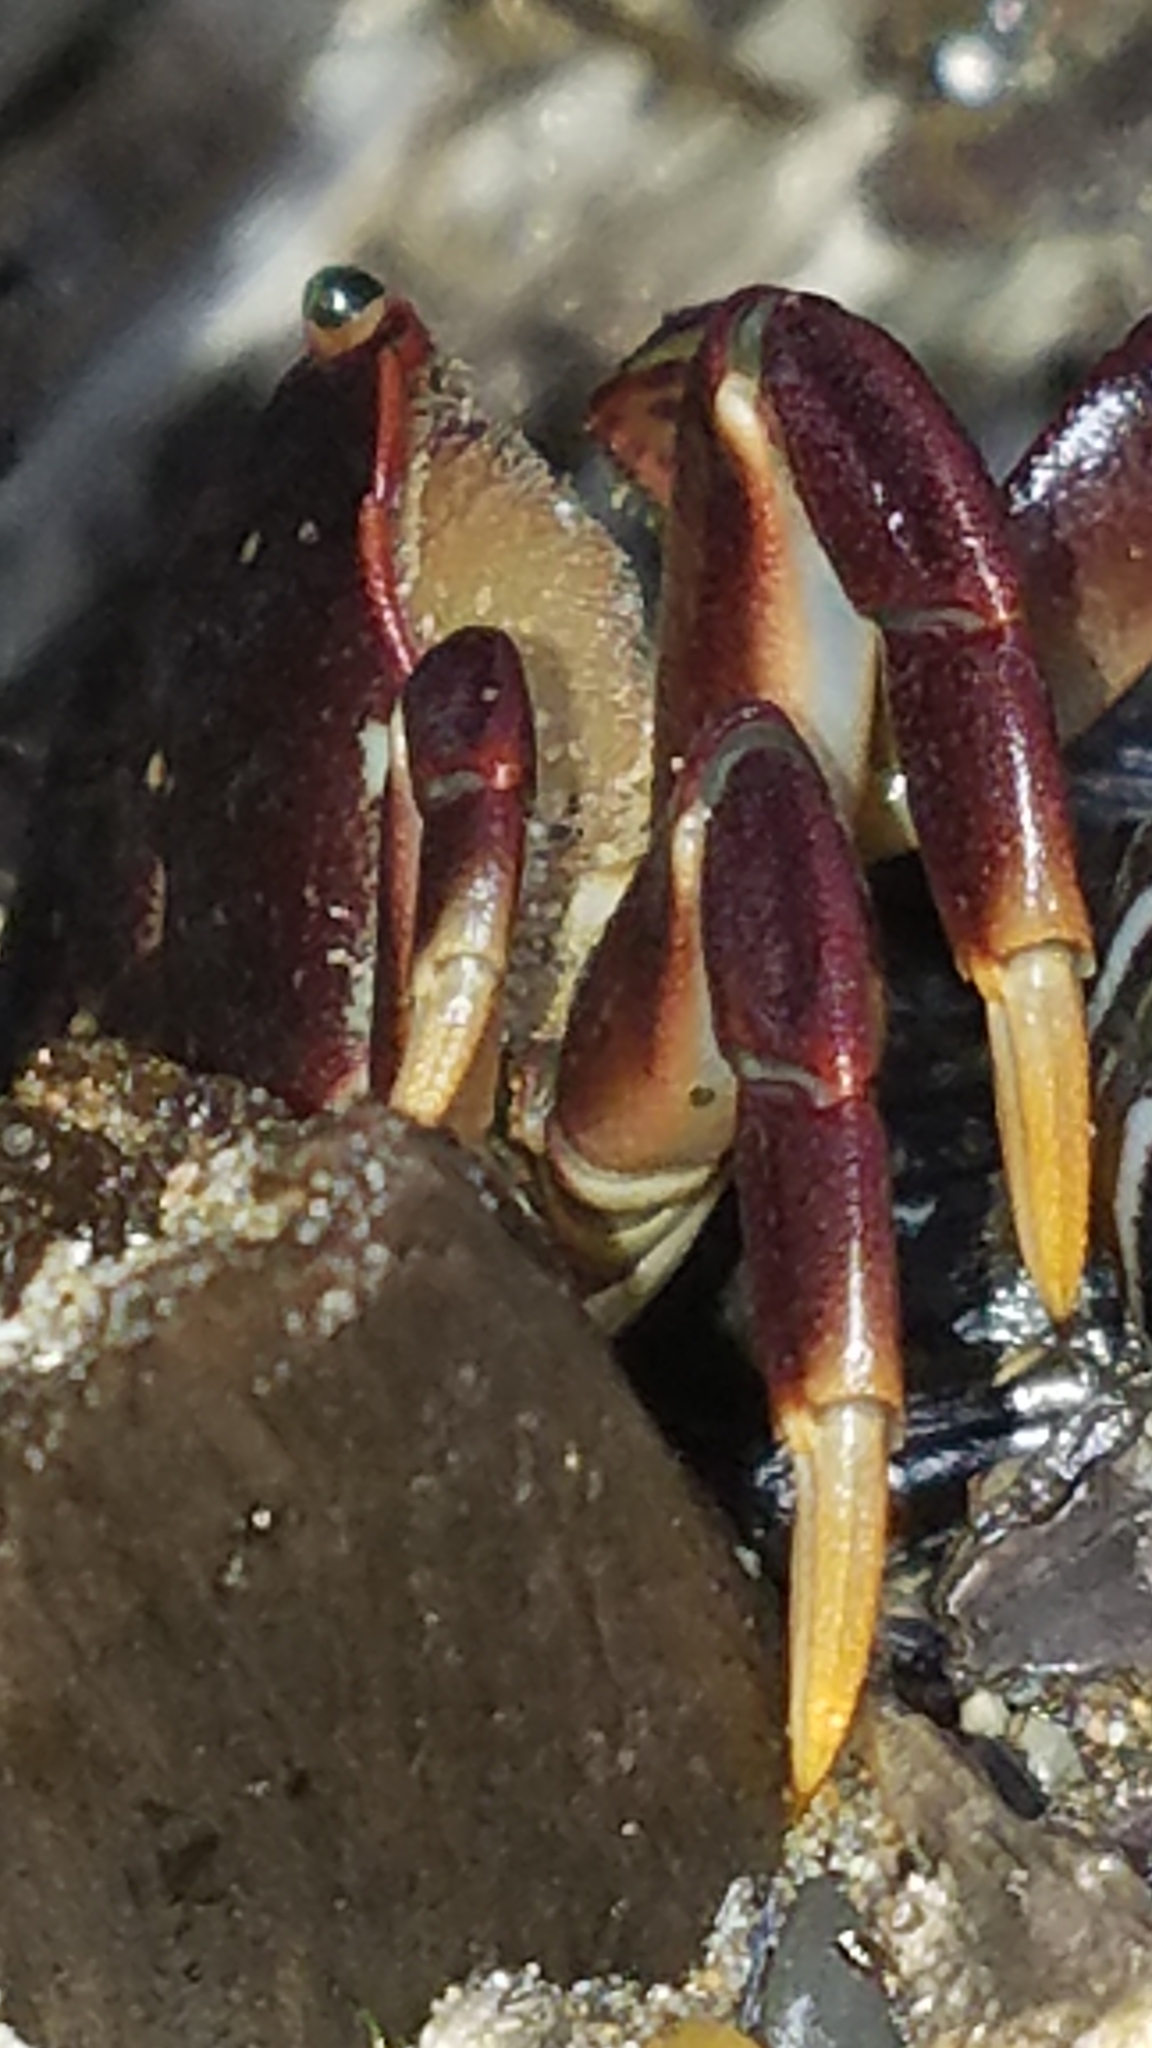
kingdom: Animalia
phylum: Arthropoda
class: Malacostraca
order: Decapoda
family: Varunidae
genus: Hemigrapsus
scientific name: Hemigrapsus nudus
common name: Purple shore crab
